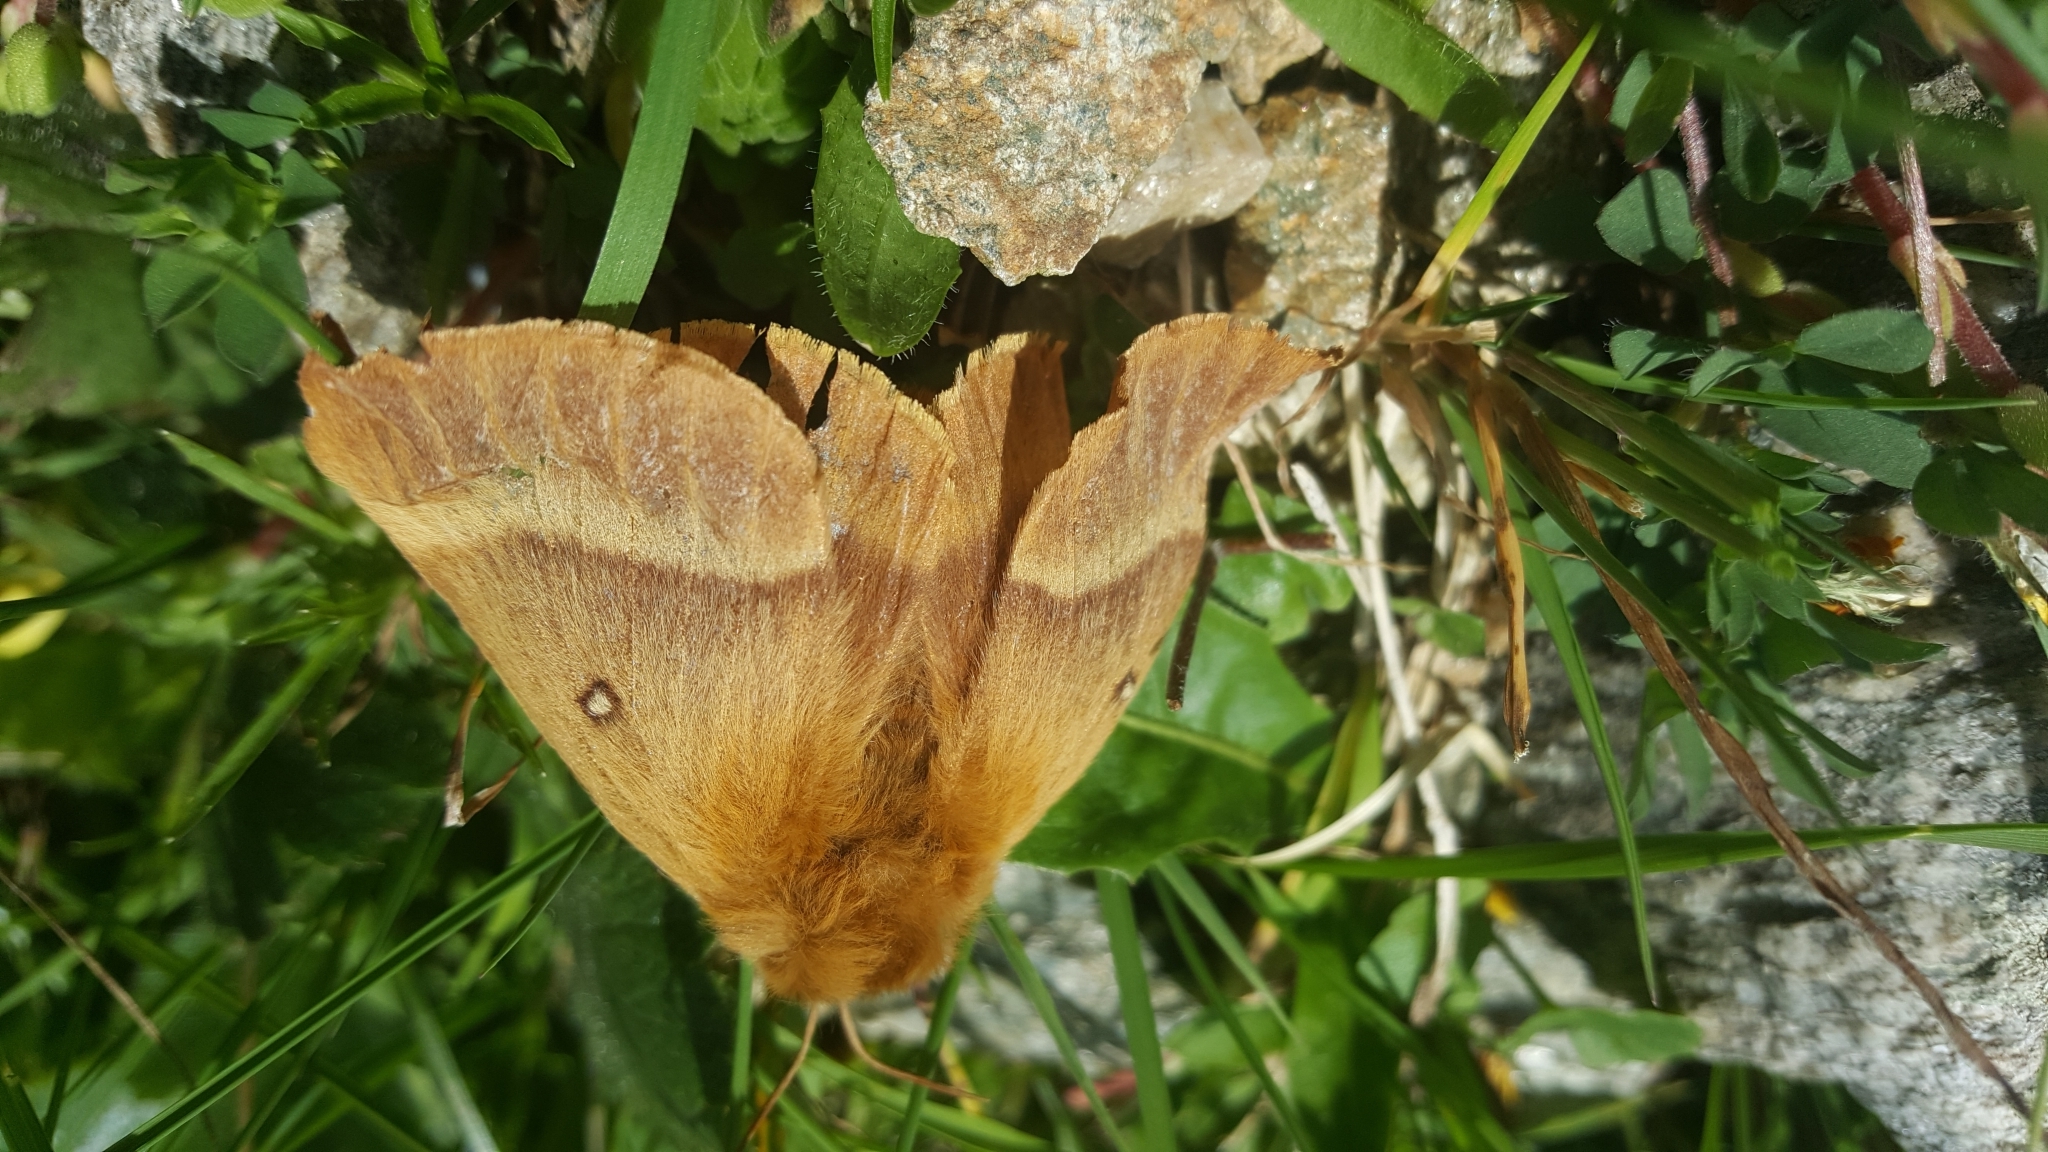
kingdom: Animalia
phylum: Arthropoda
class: Insecta
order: Lepidoptera
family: Lasiocampidae
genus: Lasiocampa
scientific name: Lasiocampa quercus
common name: Oak eggar
